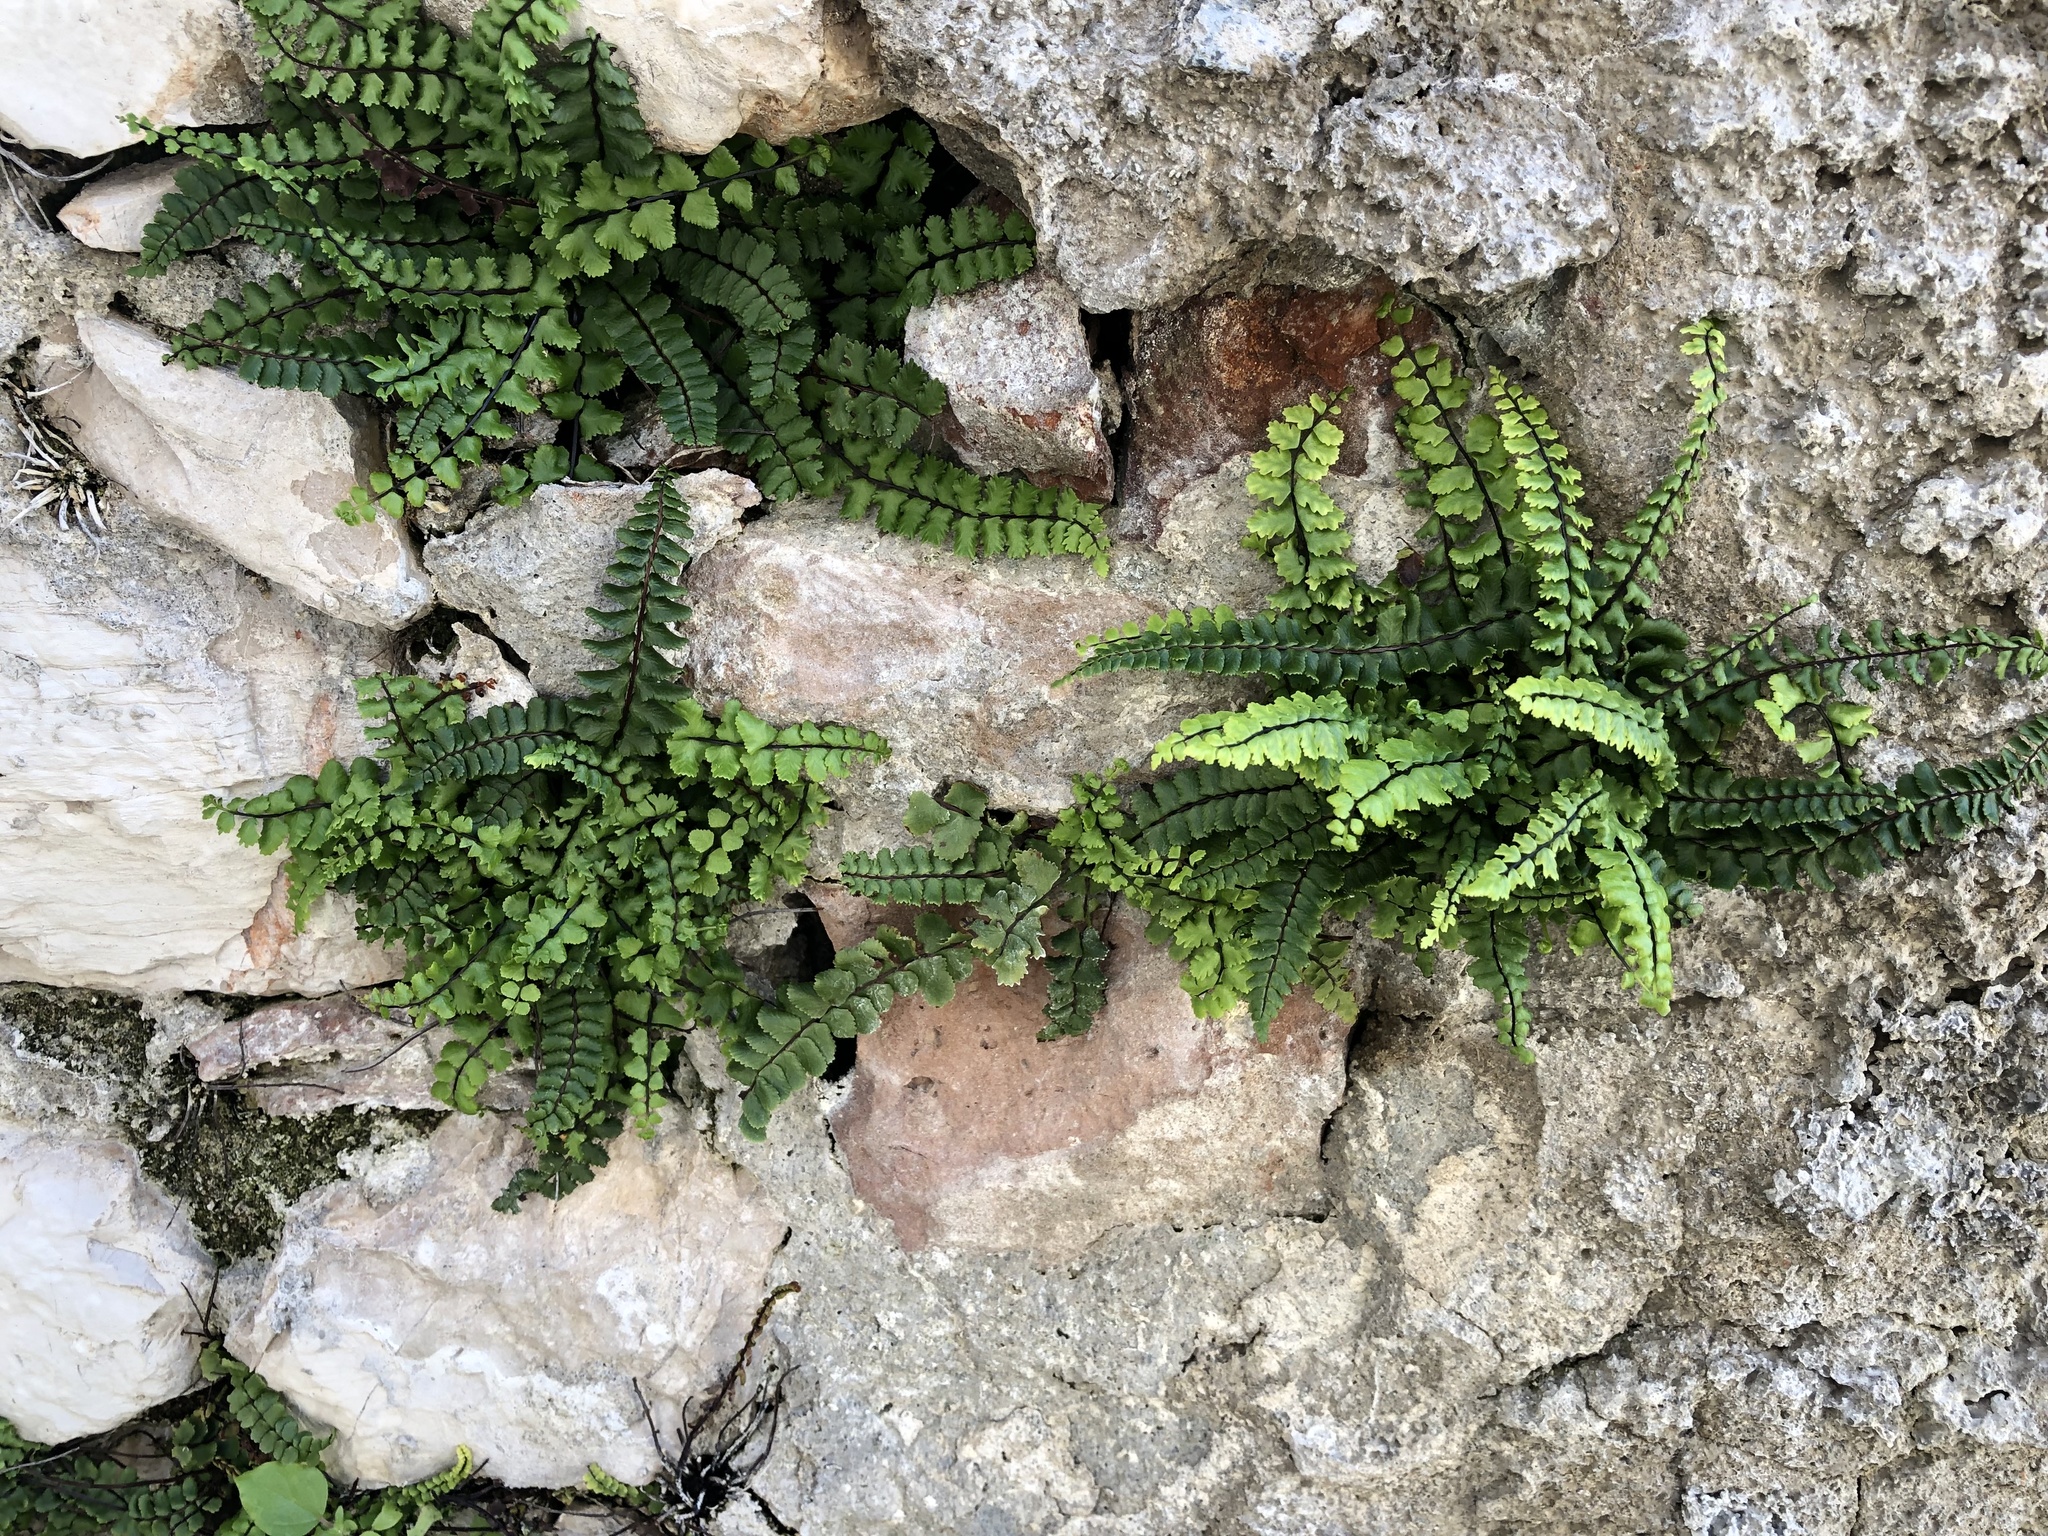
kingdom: Plantae
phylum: Tracheophyta
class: Polypodiopsida
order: Polypodiales
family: Aspleniaceae
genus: Asplenium
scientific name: Asplenium trichomanes
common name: Maidenhair spleenwort
